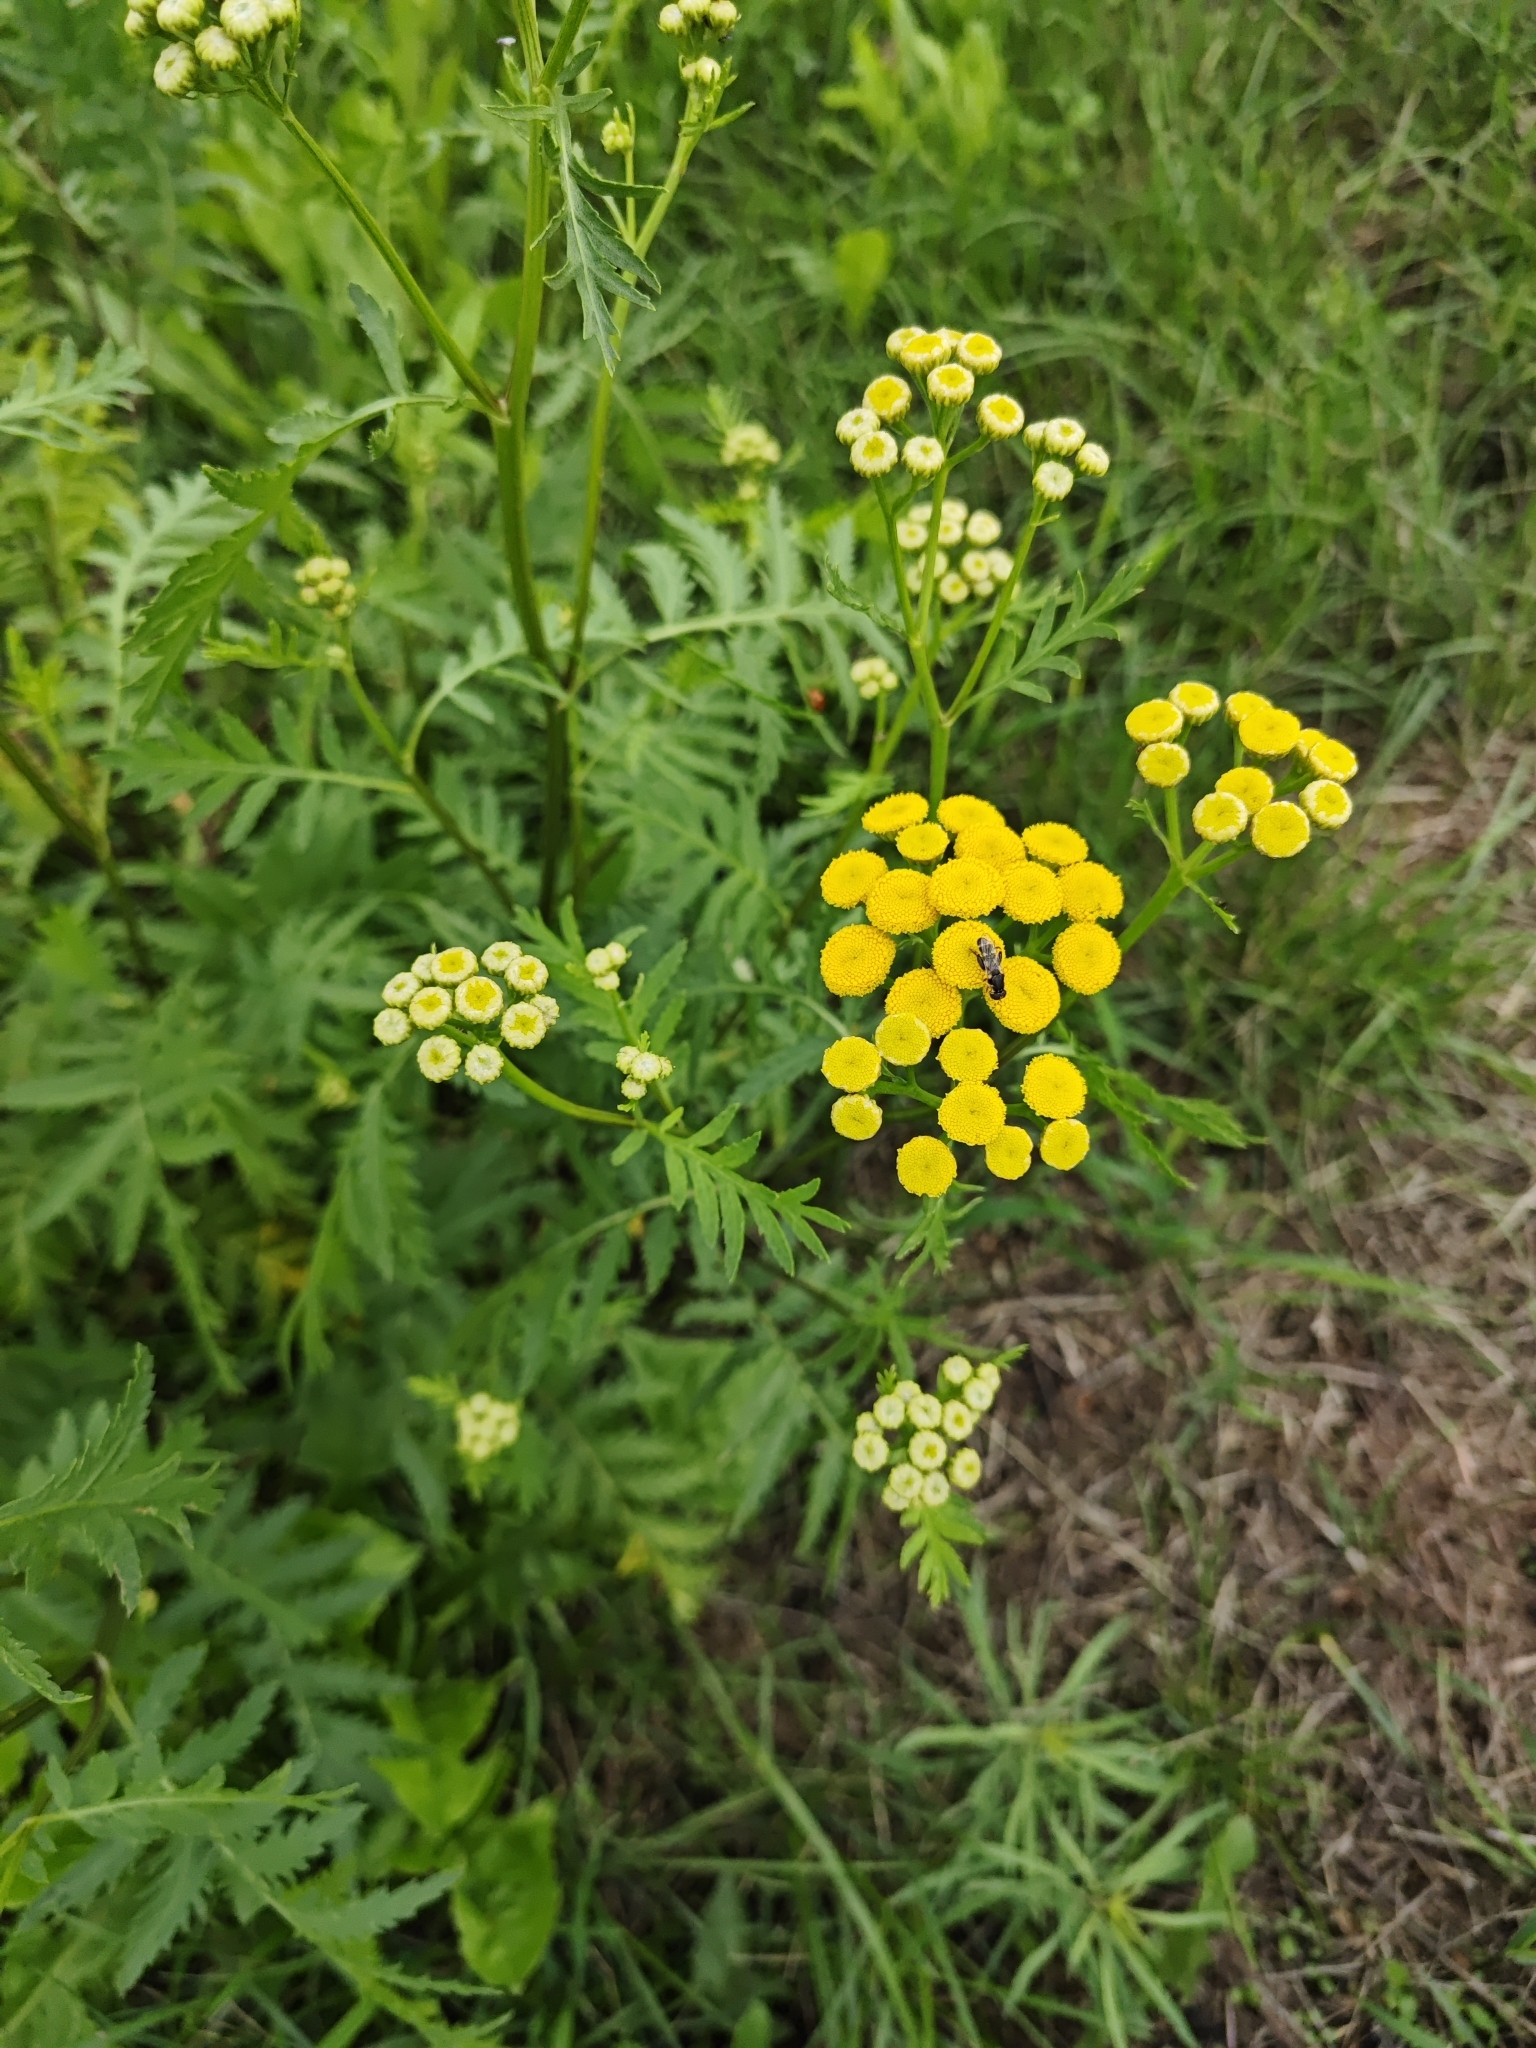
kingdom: Plantae
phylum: Tracheophyta
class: Magnoliopsida
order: Asterales
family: Asteraceae
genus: Tanacetum
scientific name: Tanacetum vulgare
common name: Common tansy
